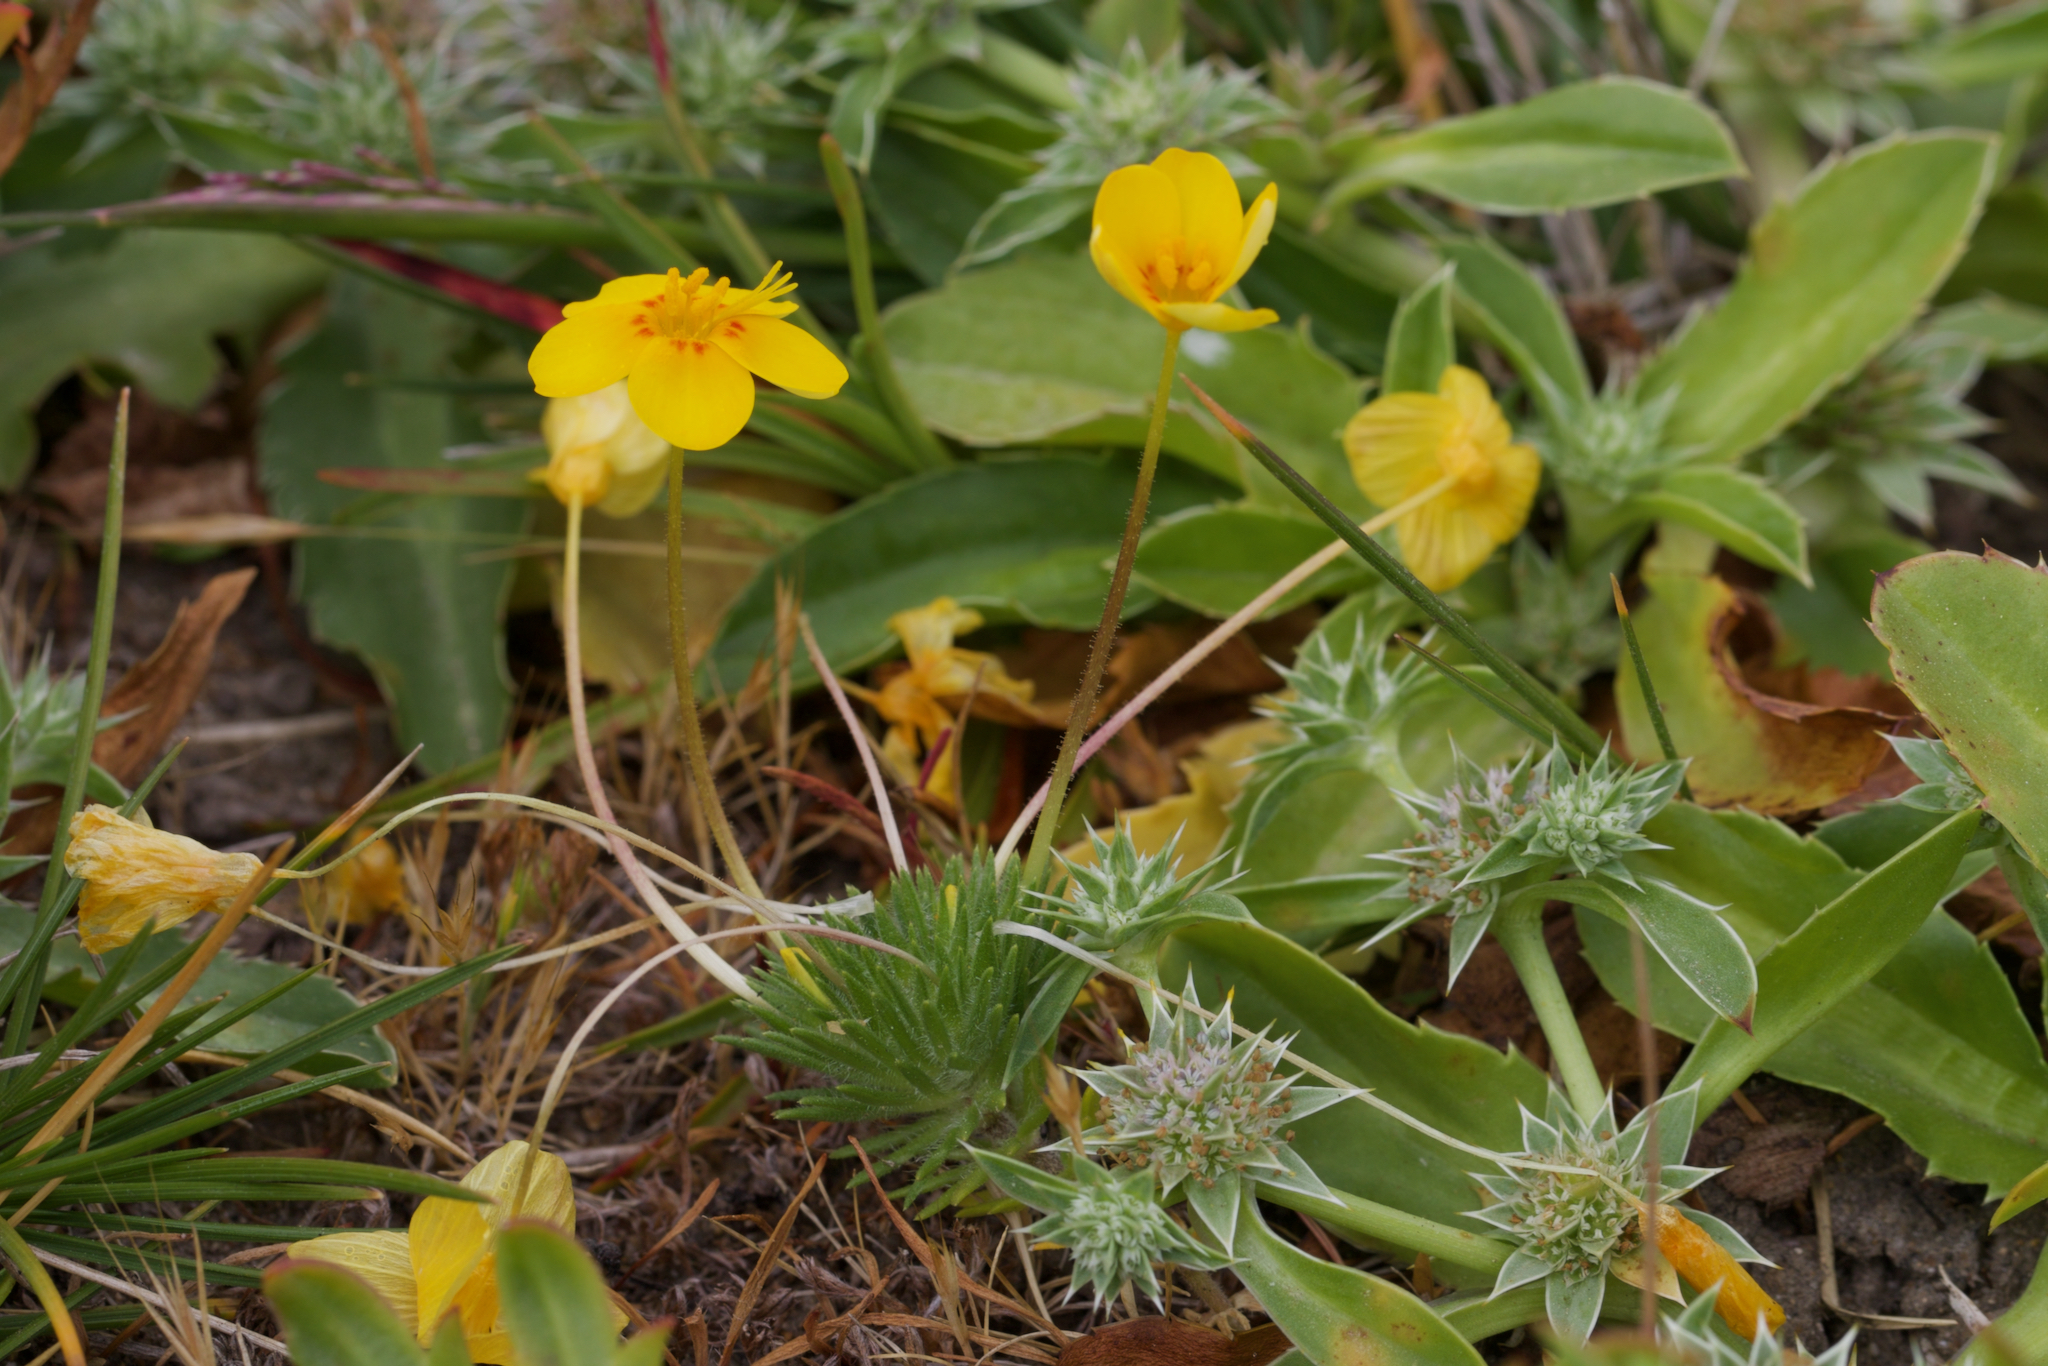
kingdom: Plantae
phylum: Tracheophyta
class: Magnoliopsida
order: Ericales
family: Polemoniaceae
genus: Leptosiphon
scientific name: Leptosiphon croceus
